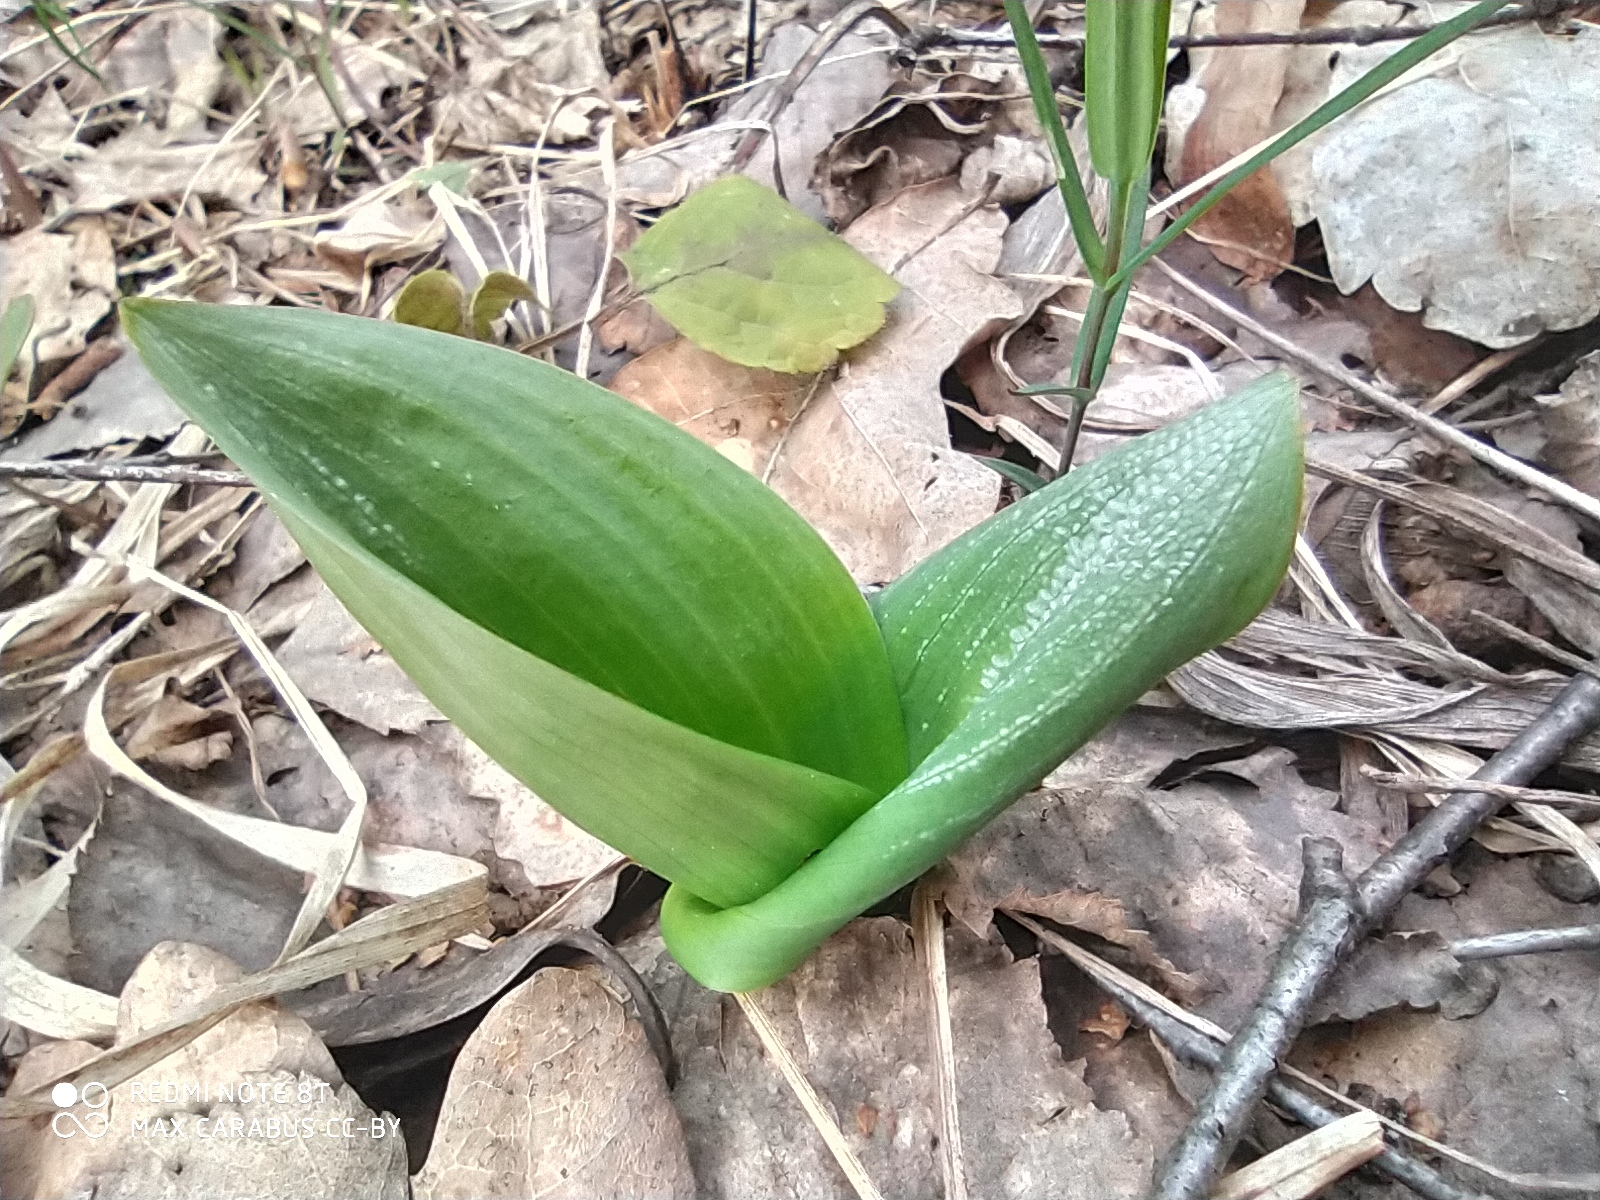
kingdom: Plantae
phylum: Tracheophyta
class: Liliopsida
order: Asparagales
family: Orchidaceae
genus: Neottia
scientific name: Neottia ovata
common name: Common twayblade
